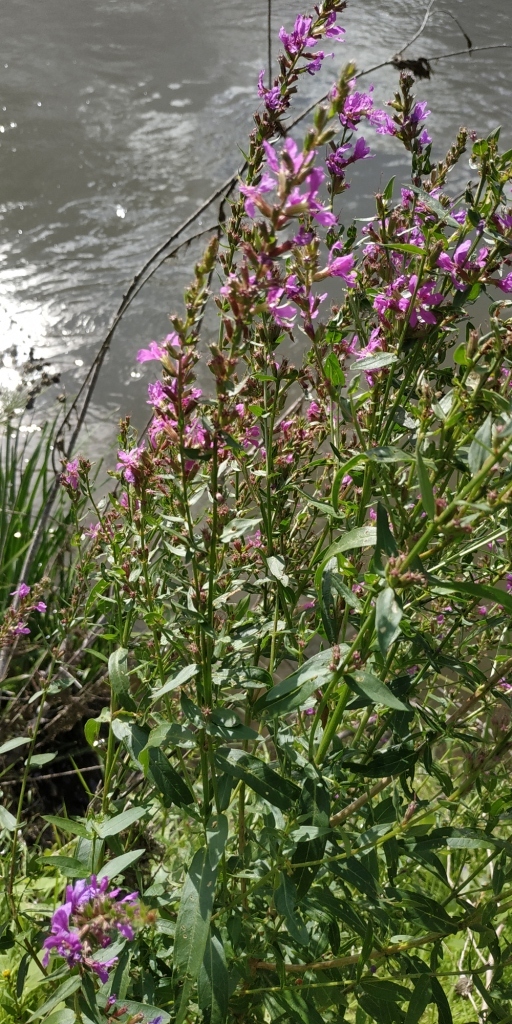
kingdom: Plantae
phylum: Tracheophyta
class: Magnoliopsida
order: Myrtales
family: Lythraceae
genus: Lythrum
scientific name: Lythrum salicaria
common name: Purple loosestrife
